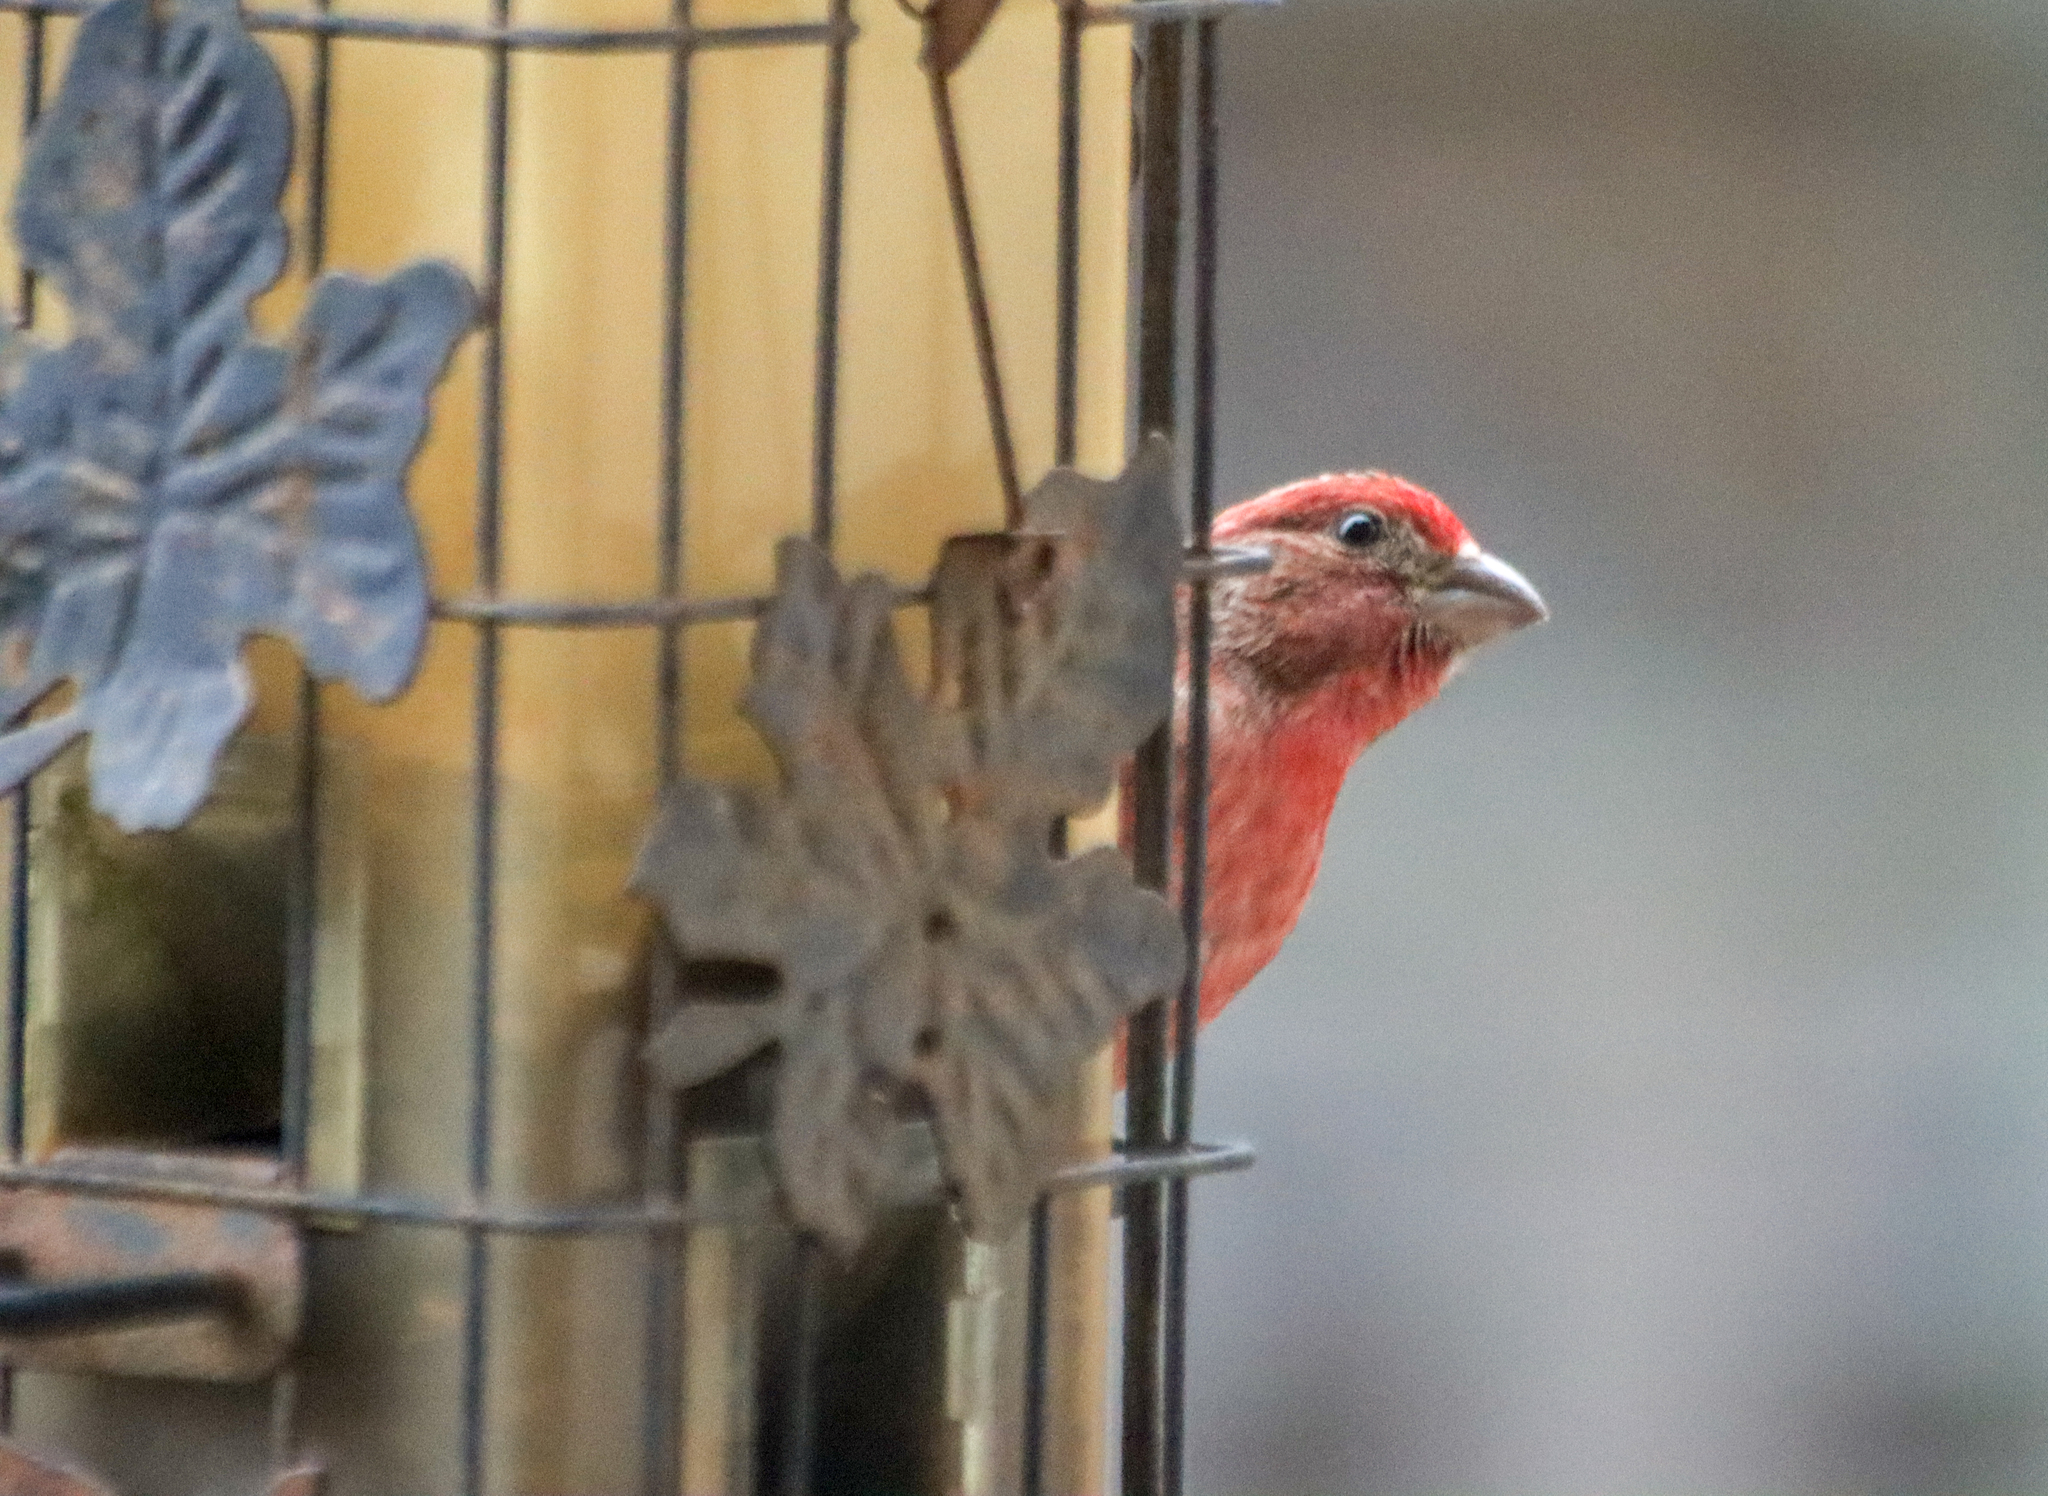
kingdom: Animalia
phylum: Chordata
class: Aves
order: Passeriformes
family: Fringillidae
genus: Haemorhous
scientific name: Haemorhous mexicanus
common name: House finch
